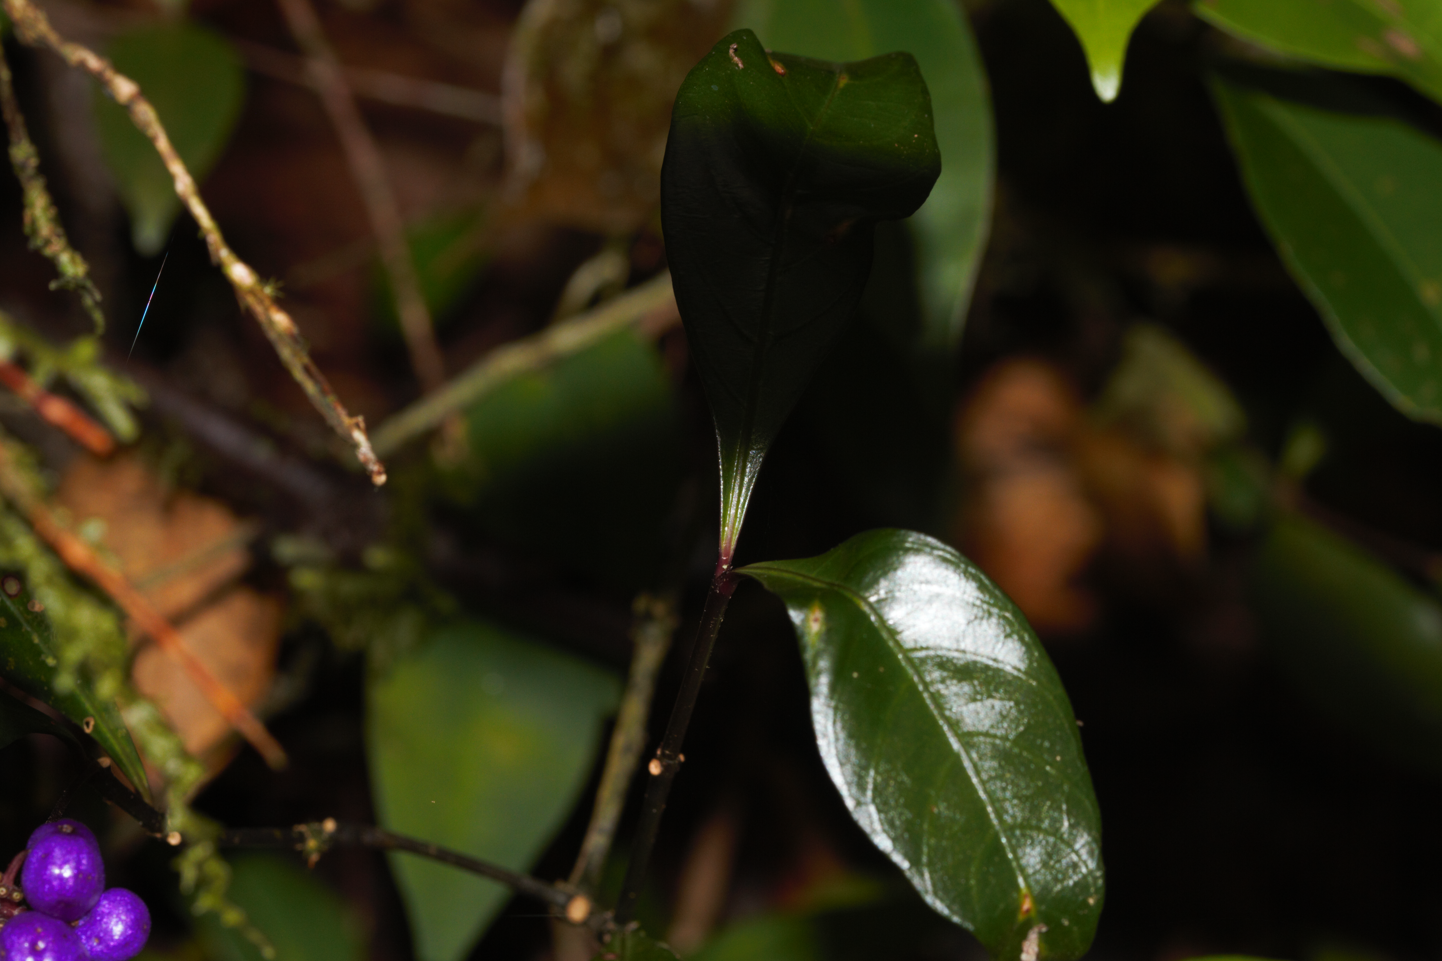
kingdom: Plantae
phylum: Tracheophyta
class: Magnoliopsida
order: Gentianales
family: Rubiaceae
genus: Palicourea
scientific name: Palicourea tenerior
